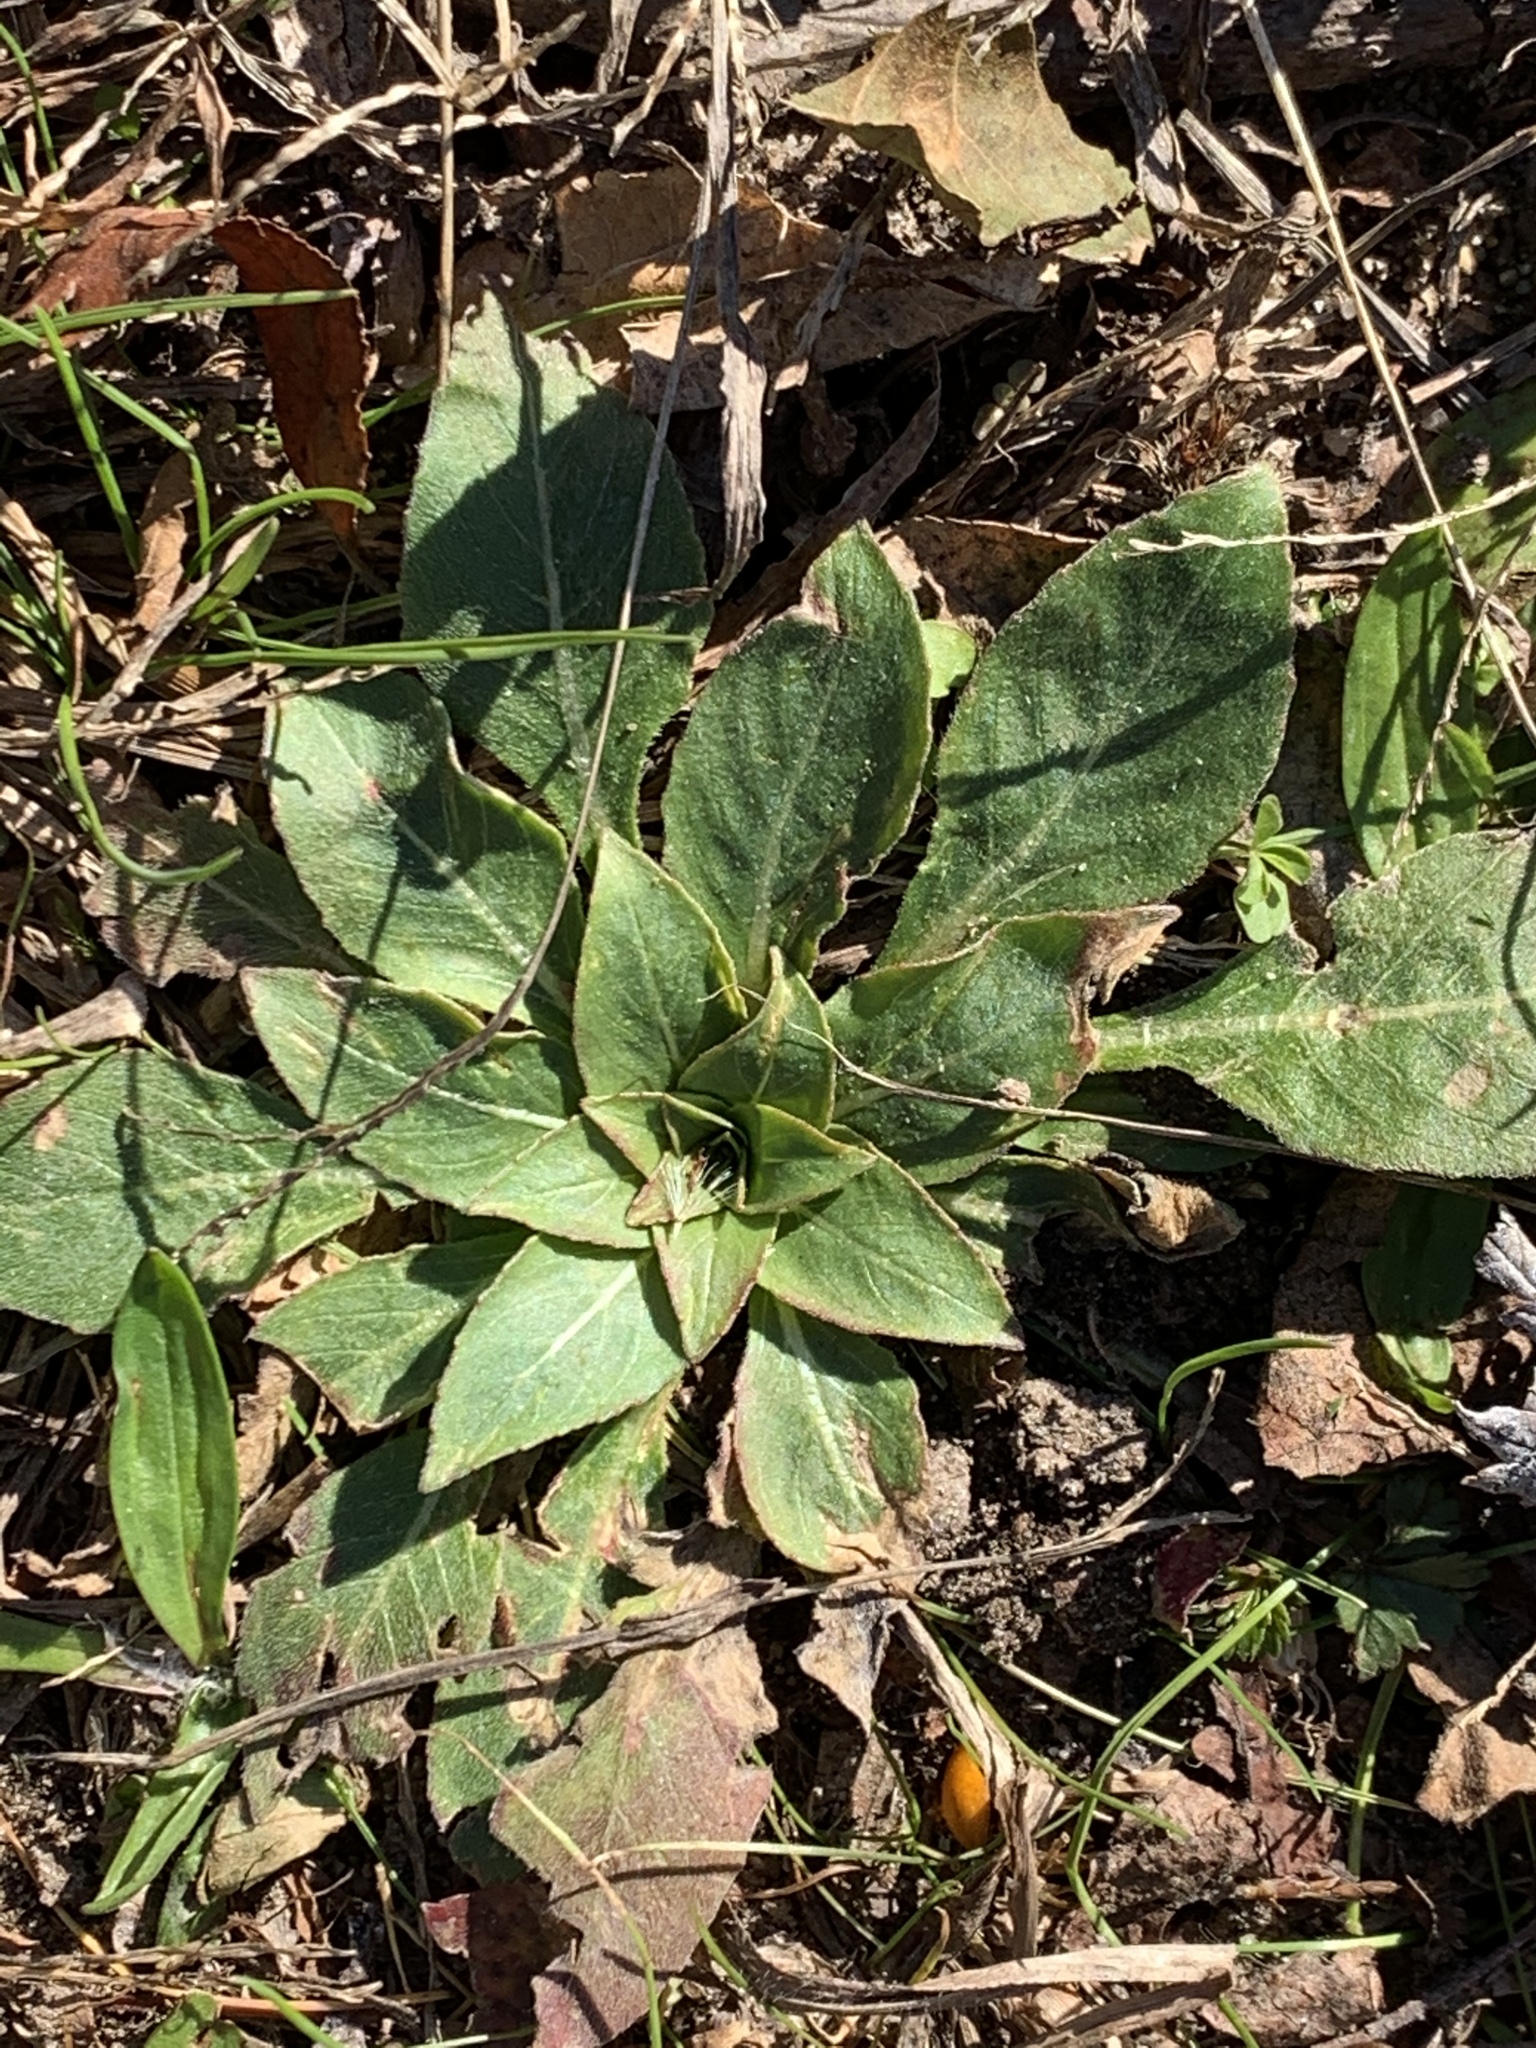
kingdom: Plantae
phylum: Tracheophyta
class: Magnoliopsida
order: Myrtales
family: Onagraceae
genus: Oenothera
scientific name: Oenothera biennis
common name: Common evening-primrose
